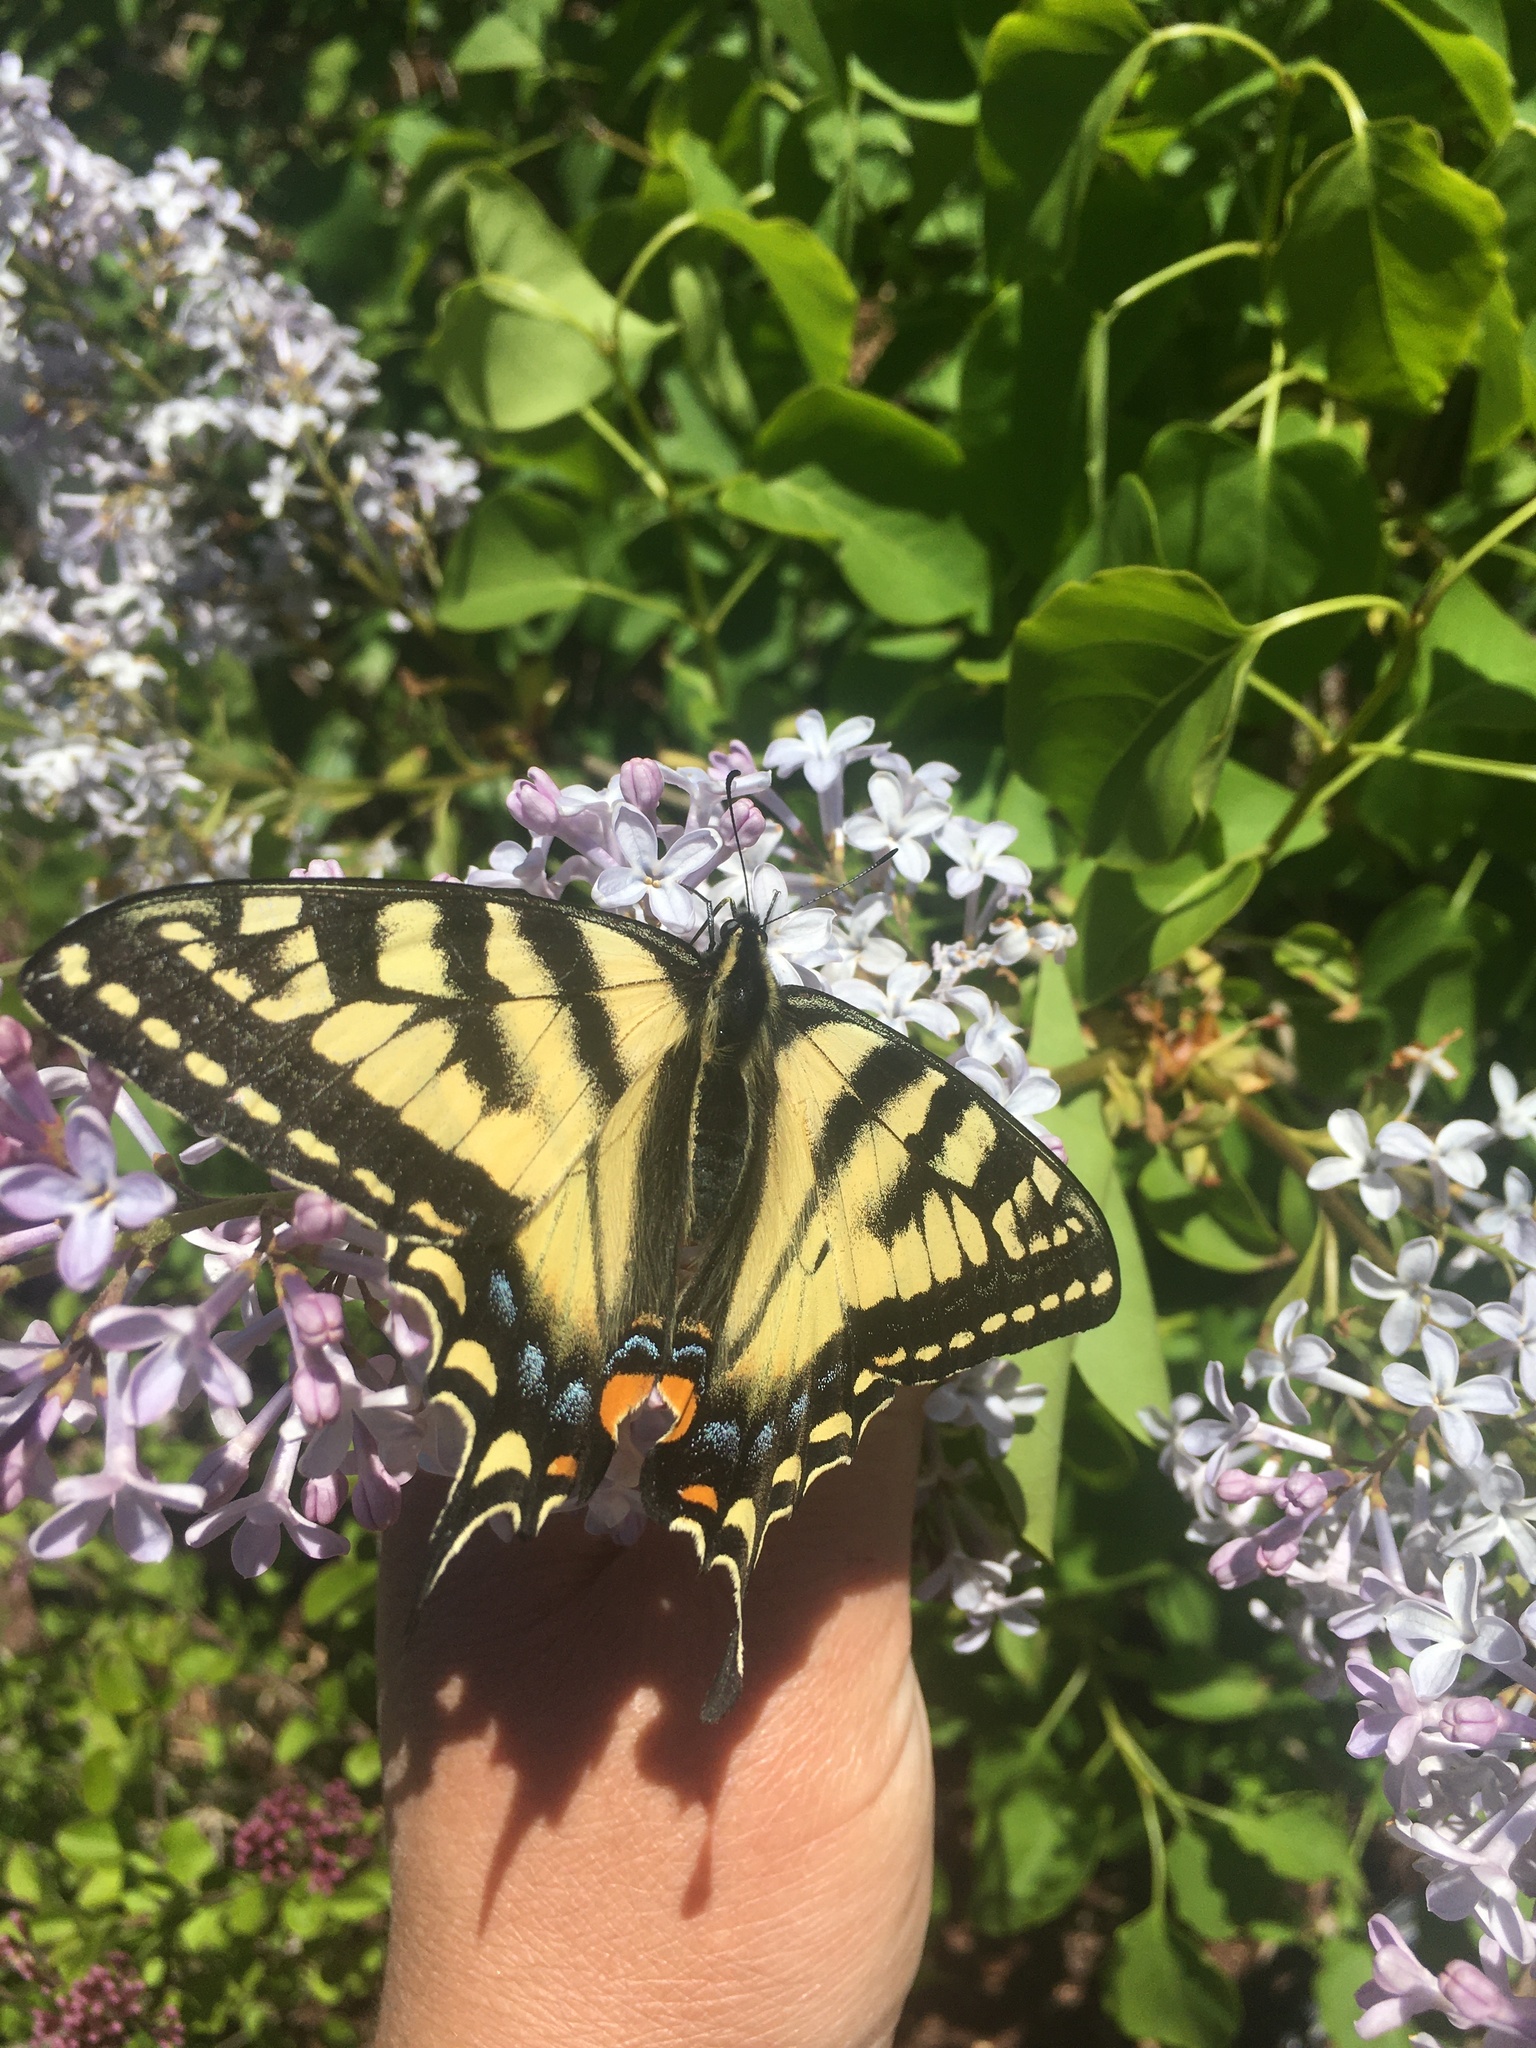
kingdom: Animalia
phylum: Arthropoda
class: Insecta
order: Lepidoptera
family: Papilionidae
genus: Papilio
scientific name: Papilio canadensis
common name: Canadian tiger swallowtail
